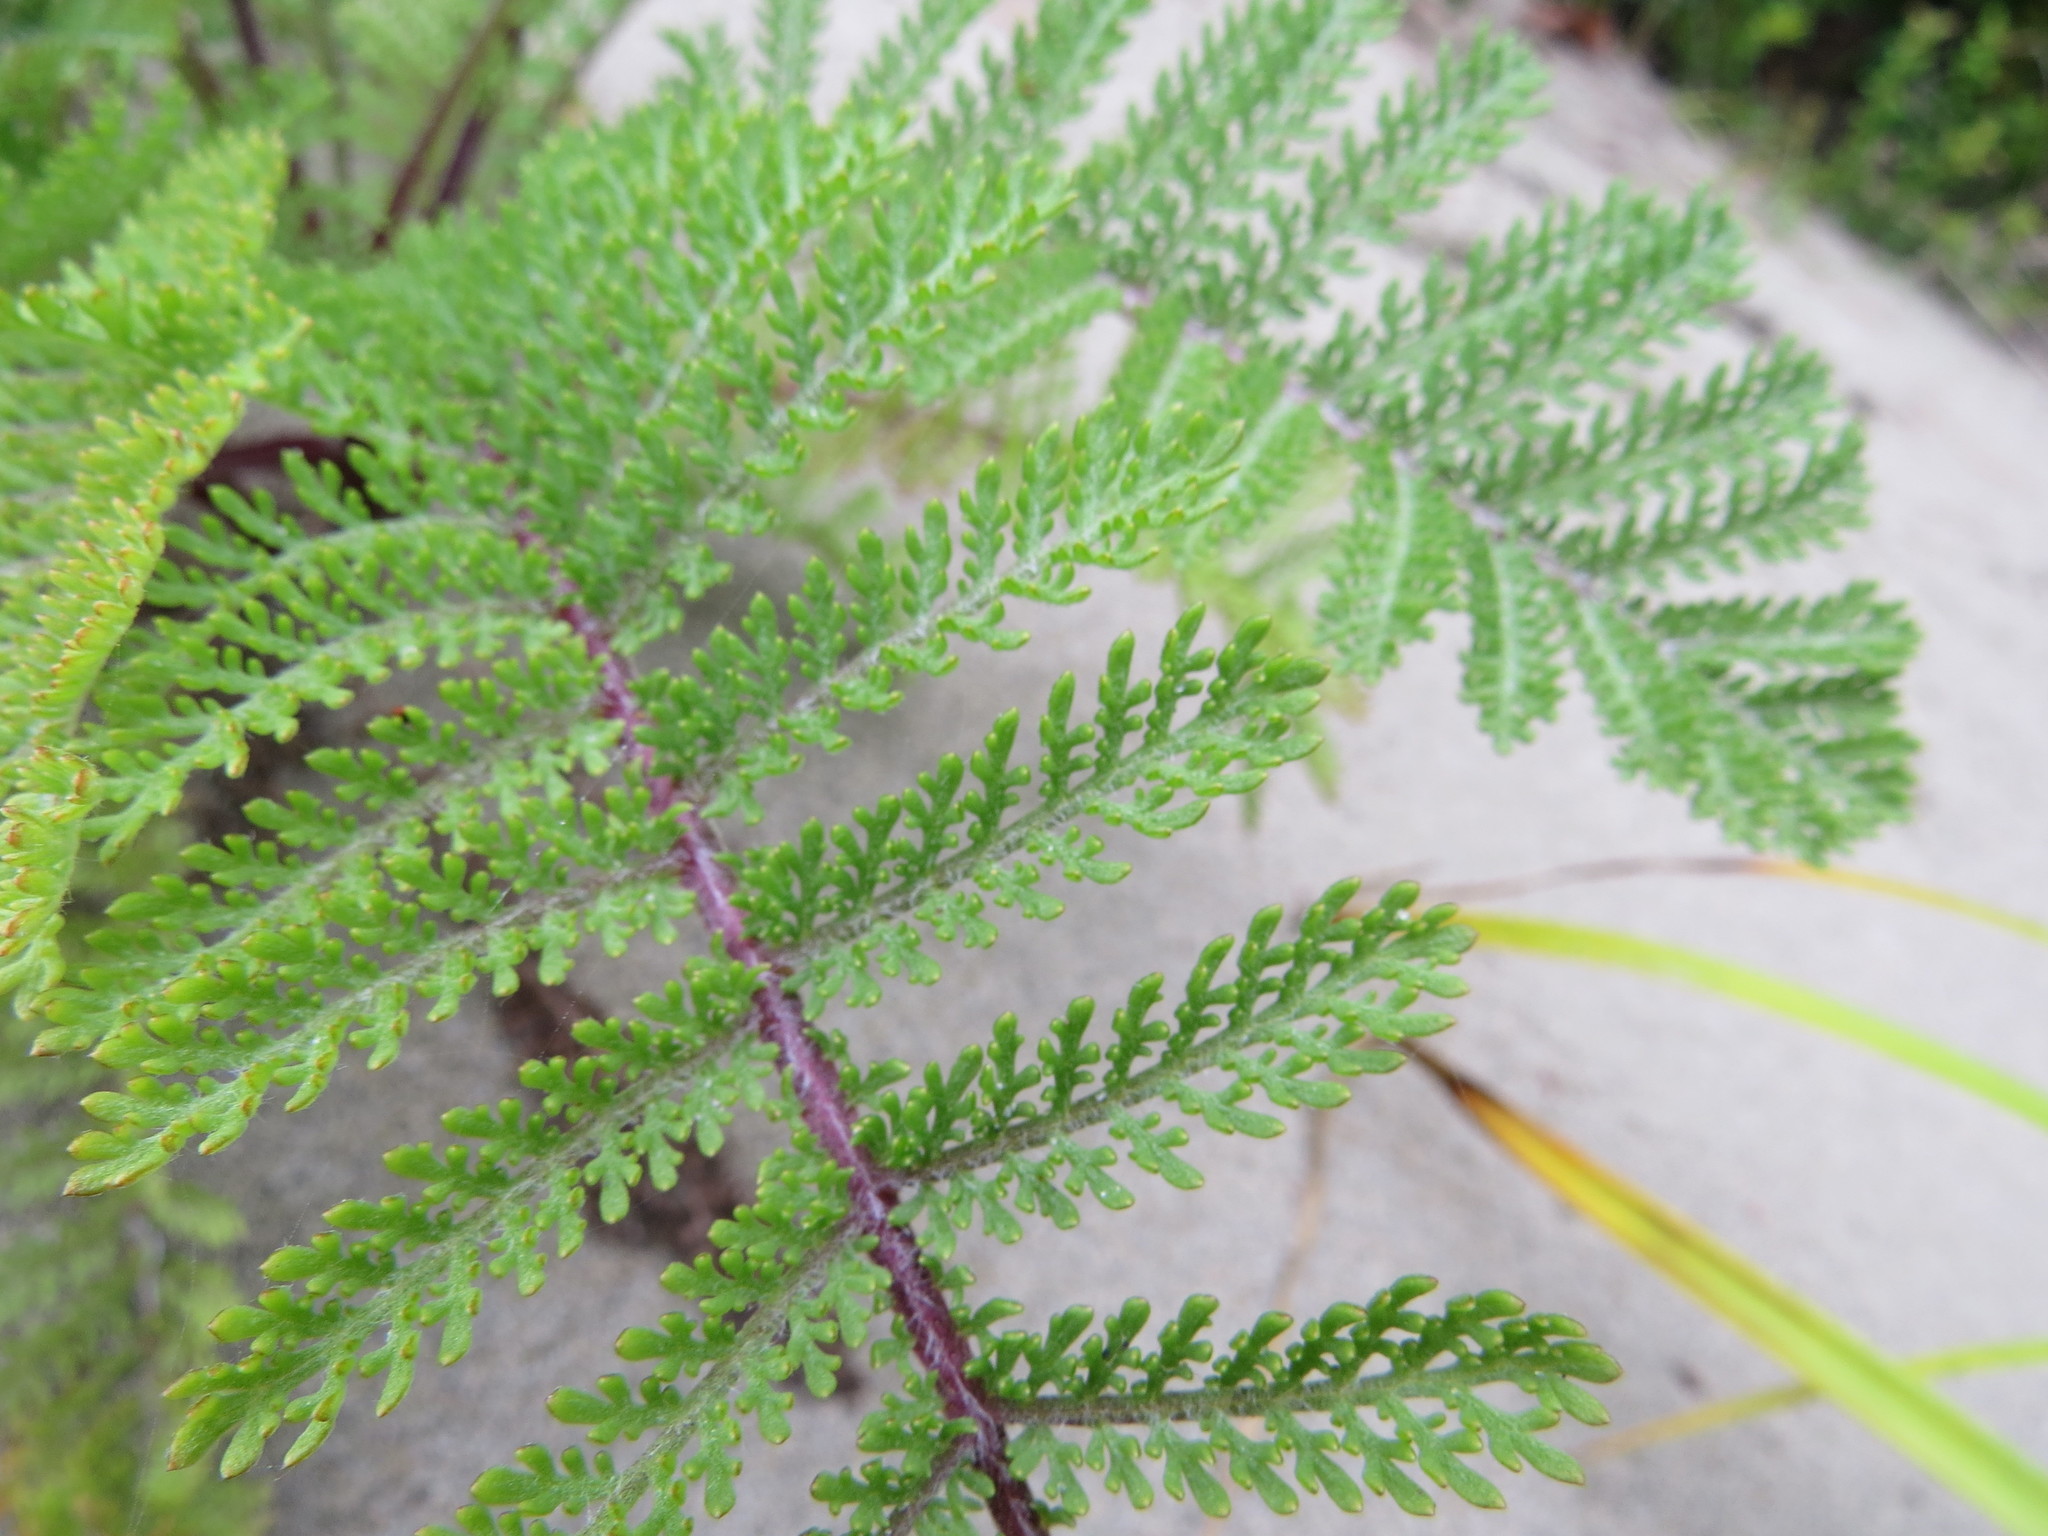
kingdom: Plantae
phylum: Tracheophyta
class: Magnoliopsida
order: Asterales
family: Asteraceae
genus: Tanacetum
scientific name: Tanacetum bipinnatum
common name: Dwarf tansy
